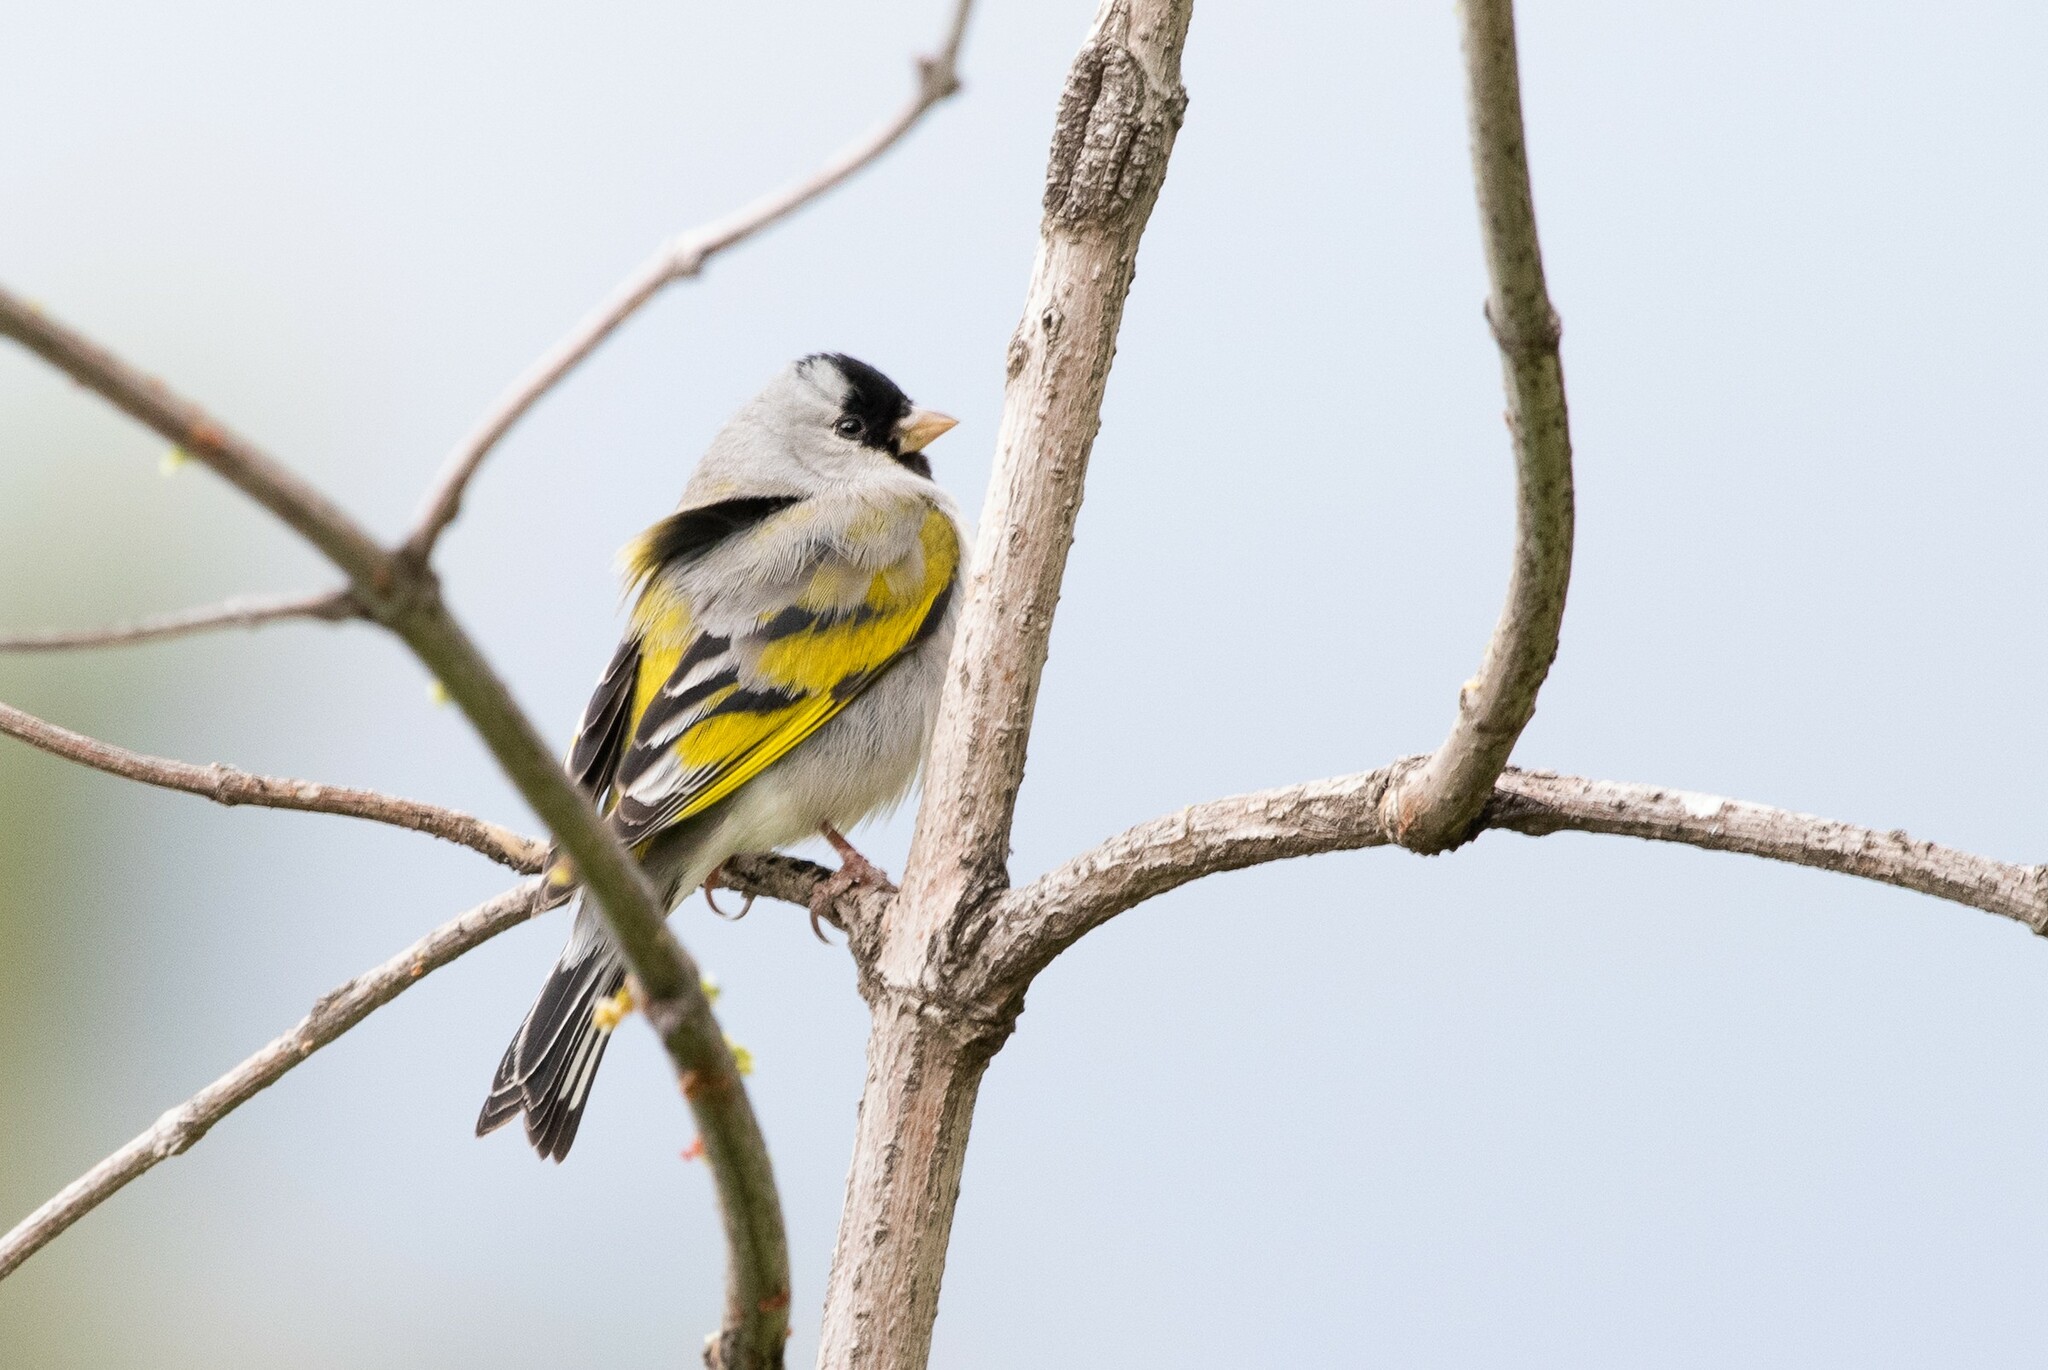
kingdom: Animalia
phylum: Chordata
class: Aves
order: Passeriformes
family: Fringillidae
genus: Spinus
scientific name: Spinus lawrencei
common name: Lawrence's goldfinch
